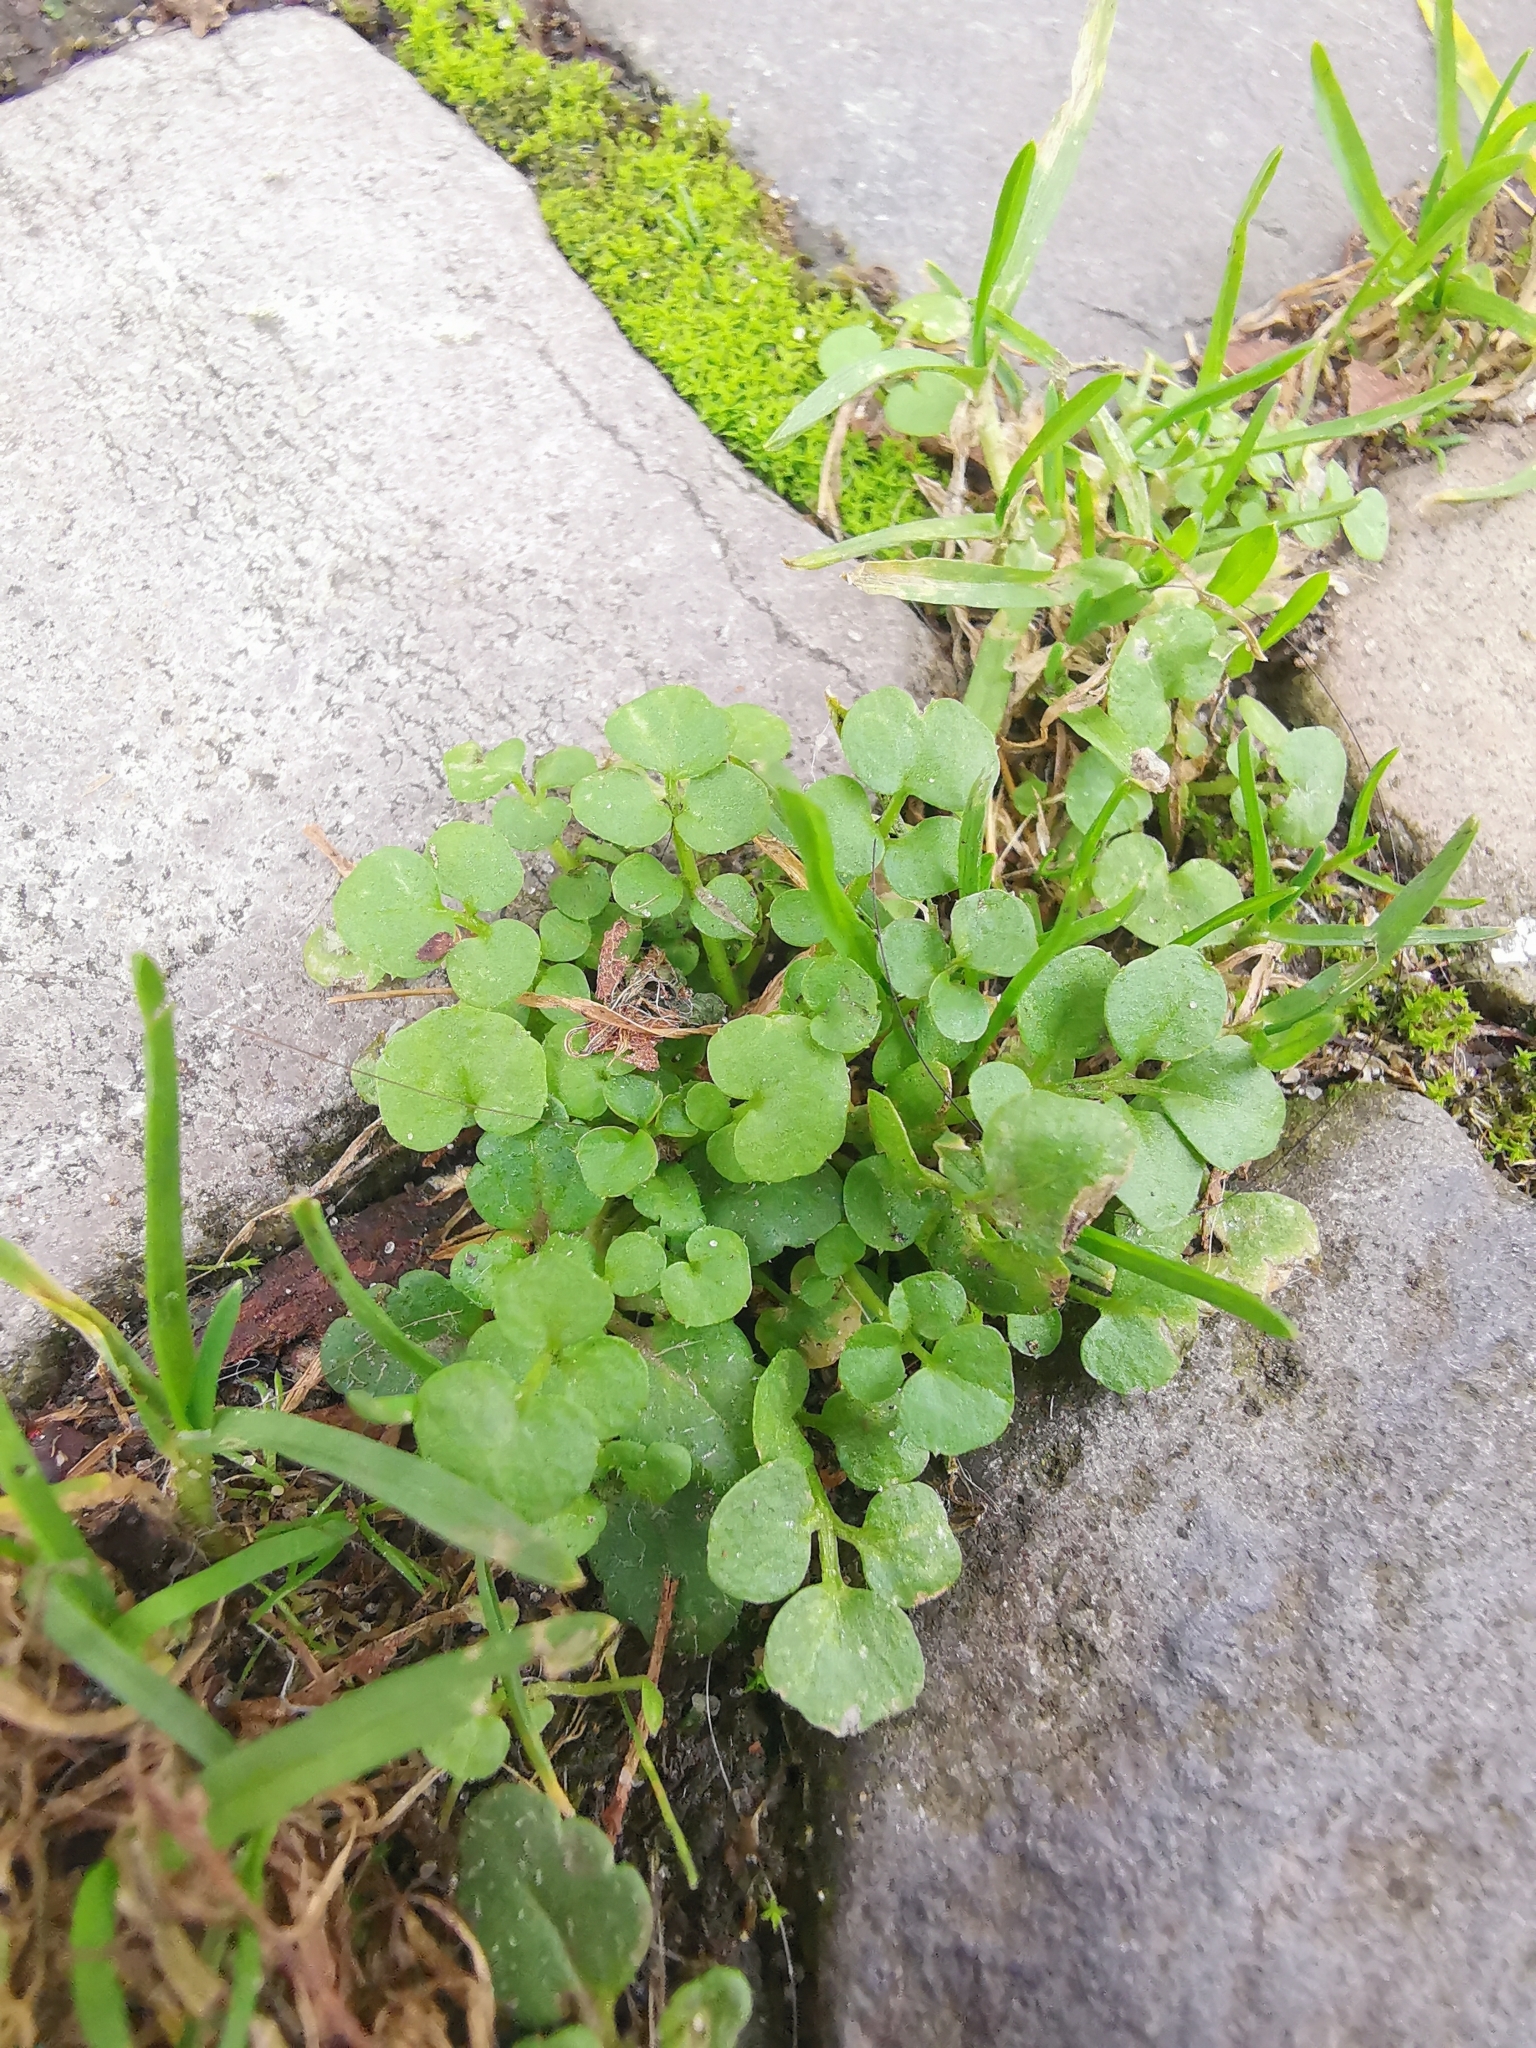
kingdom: Plantae
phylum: Tracheophyta
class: Magnoliopsida
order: Brassicales
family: Brassicaceae
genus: Cardamine
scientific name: Cardamine hirsuta
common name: Hairy bittercress
